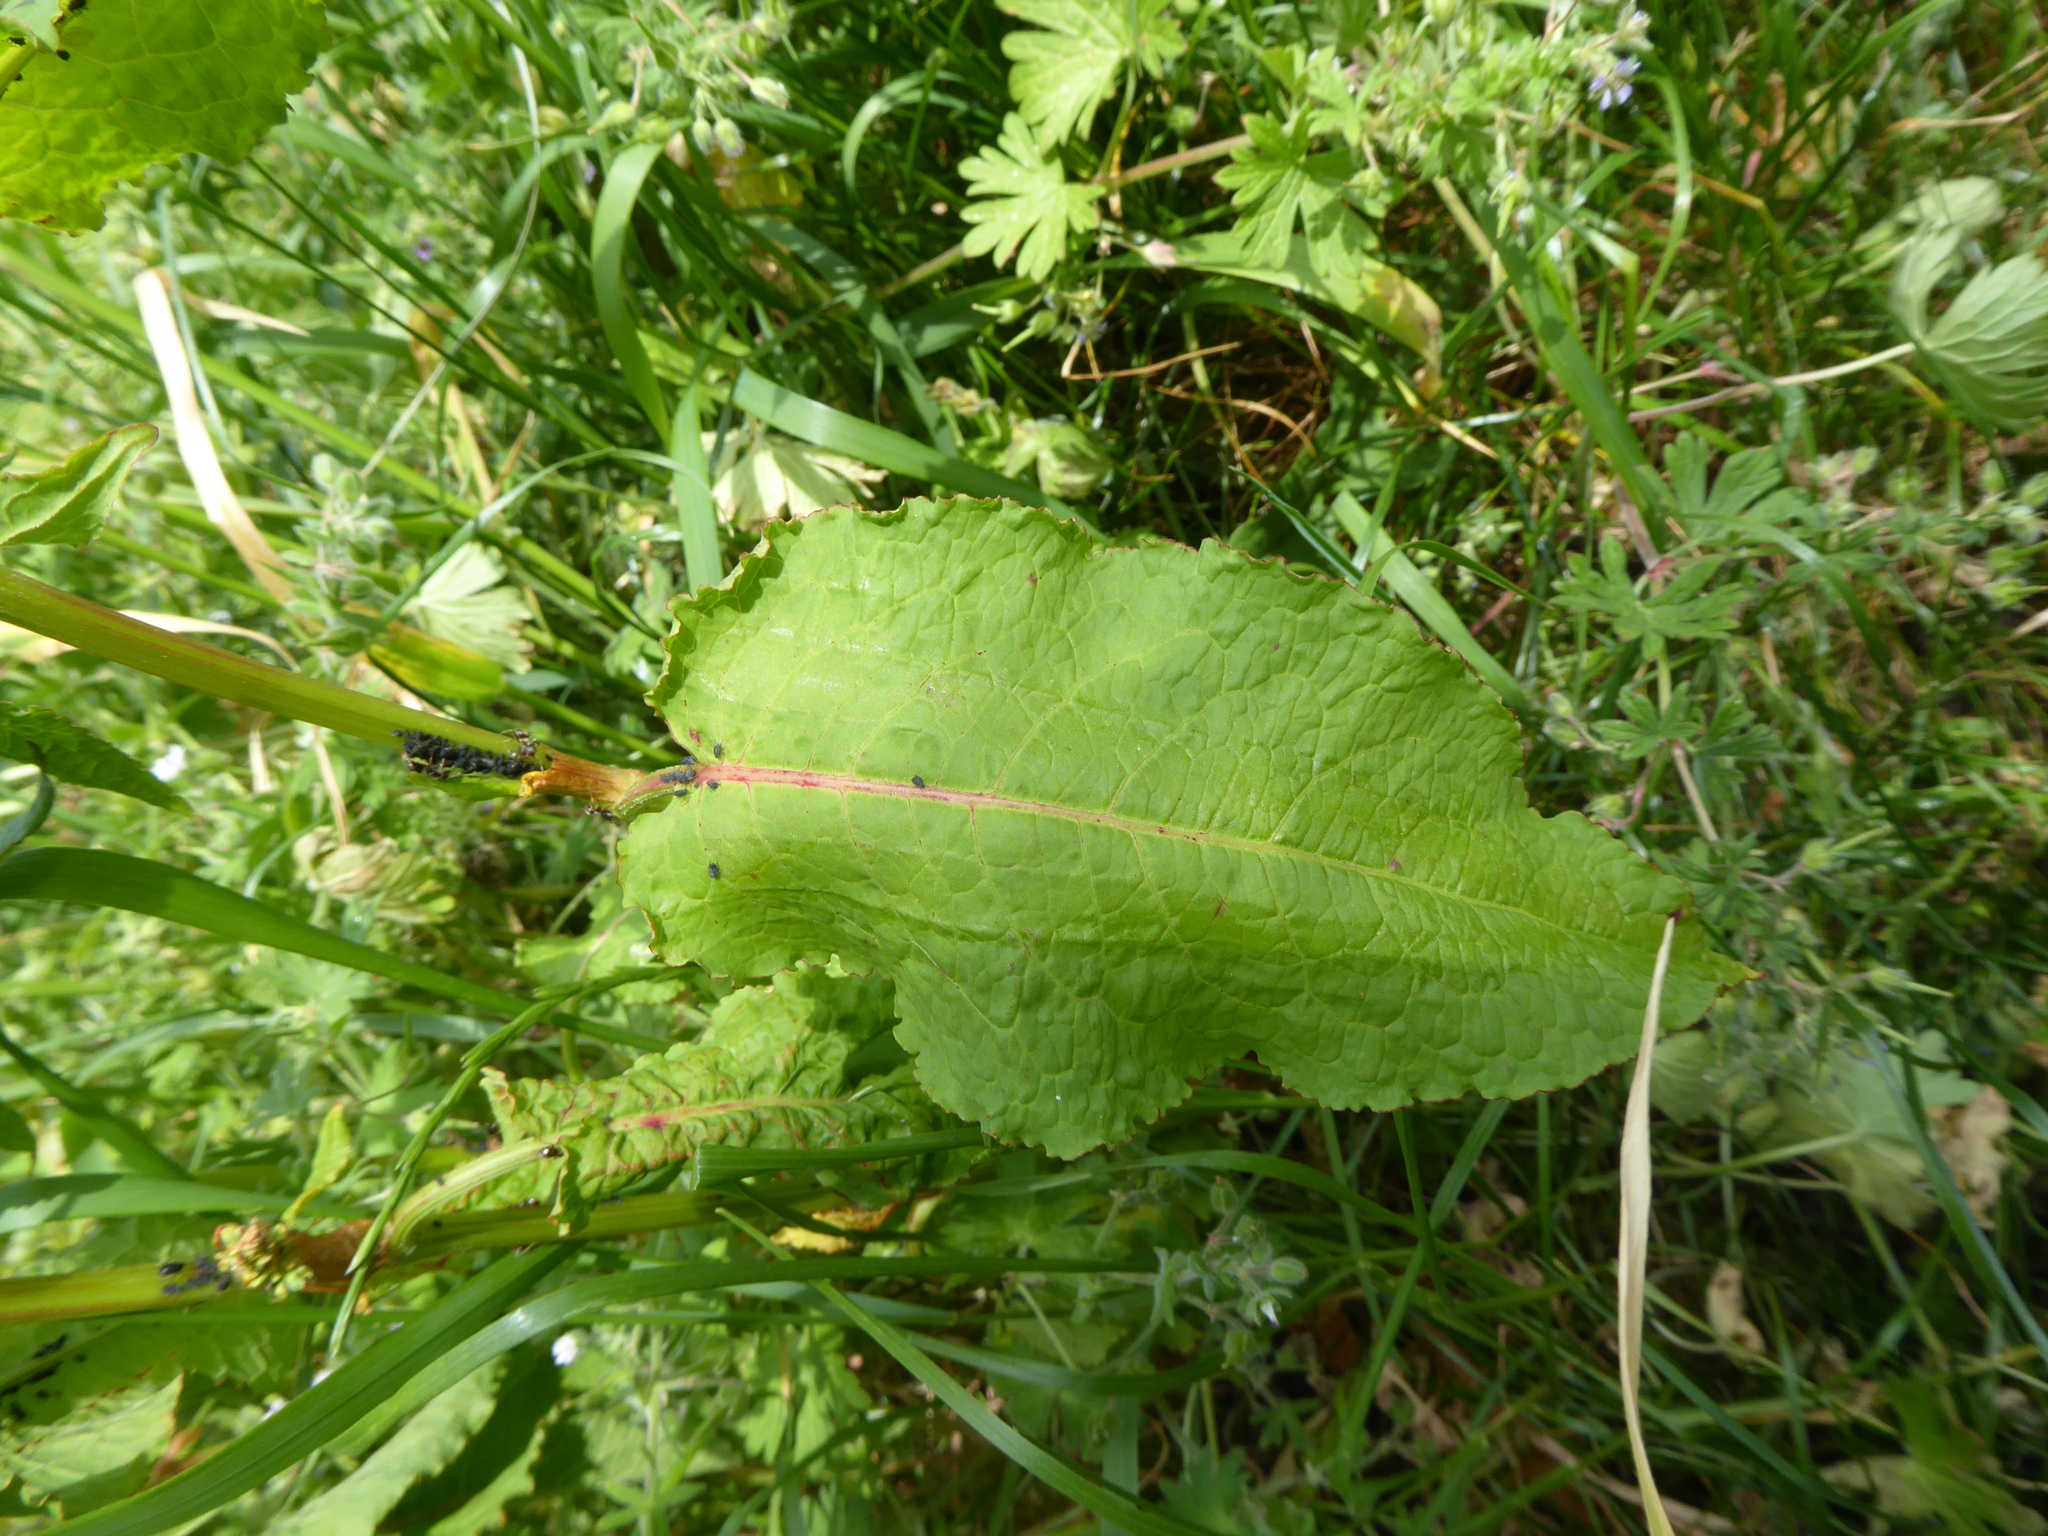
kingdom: Plantae
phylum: Tracheophyta
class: Magnoliopsida
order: Caryophyllales
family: Polygonaceae
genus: Rumex
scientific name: Rumex
